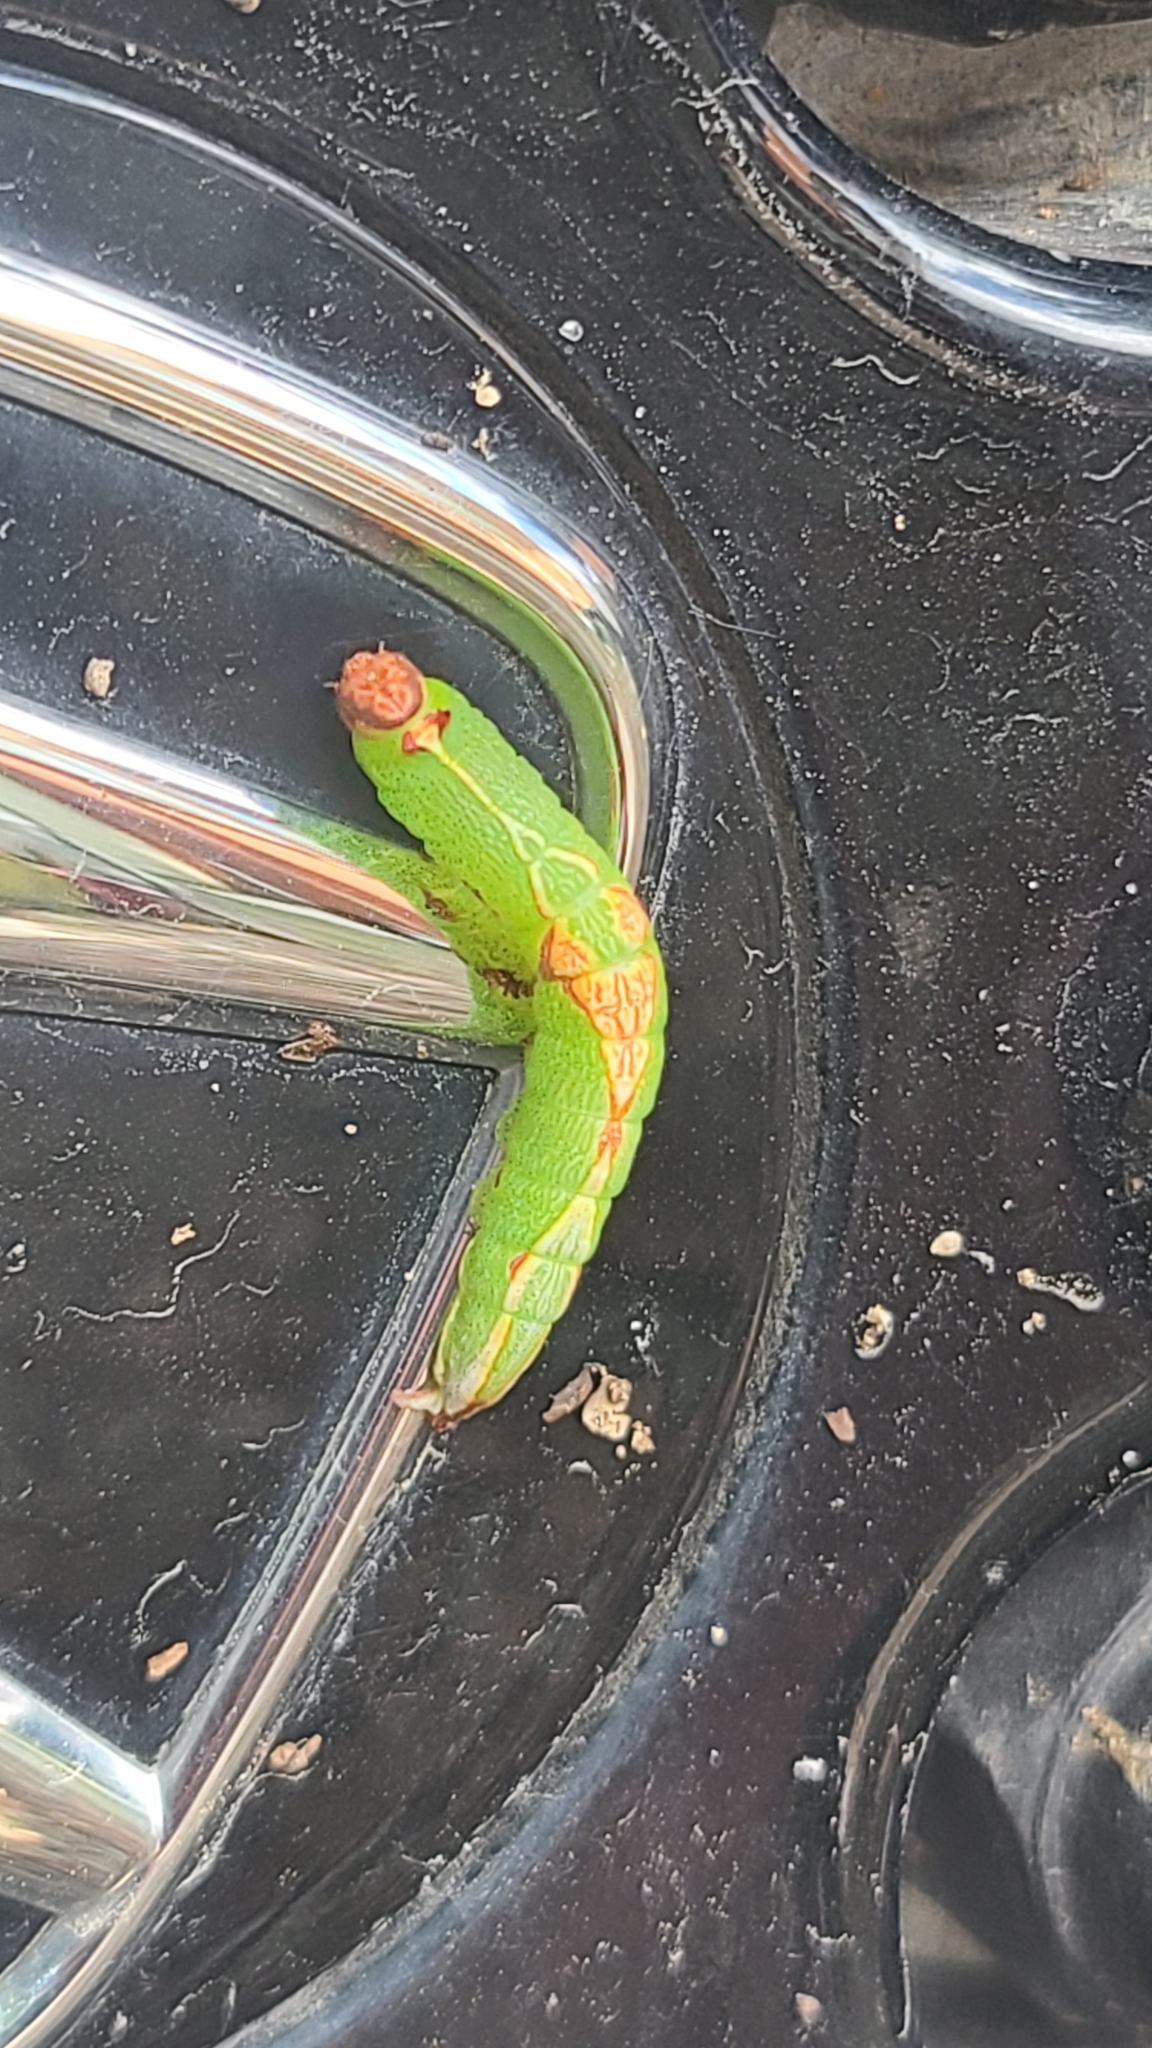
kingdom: Animalia
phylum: Arthropoda
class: Insecta
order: Lepidoptera
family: Notodontidae
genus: Heterocampa
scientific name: Heterocampa obliqua
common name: Oblique heterocampa
